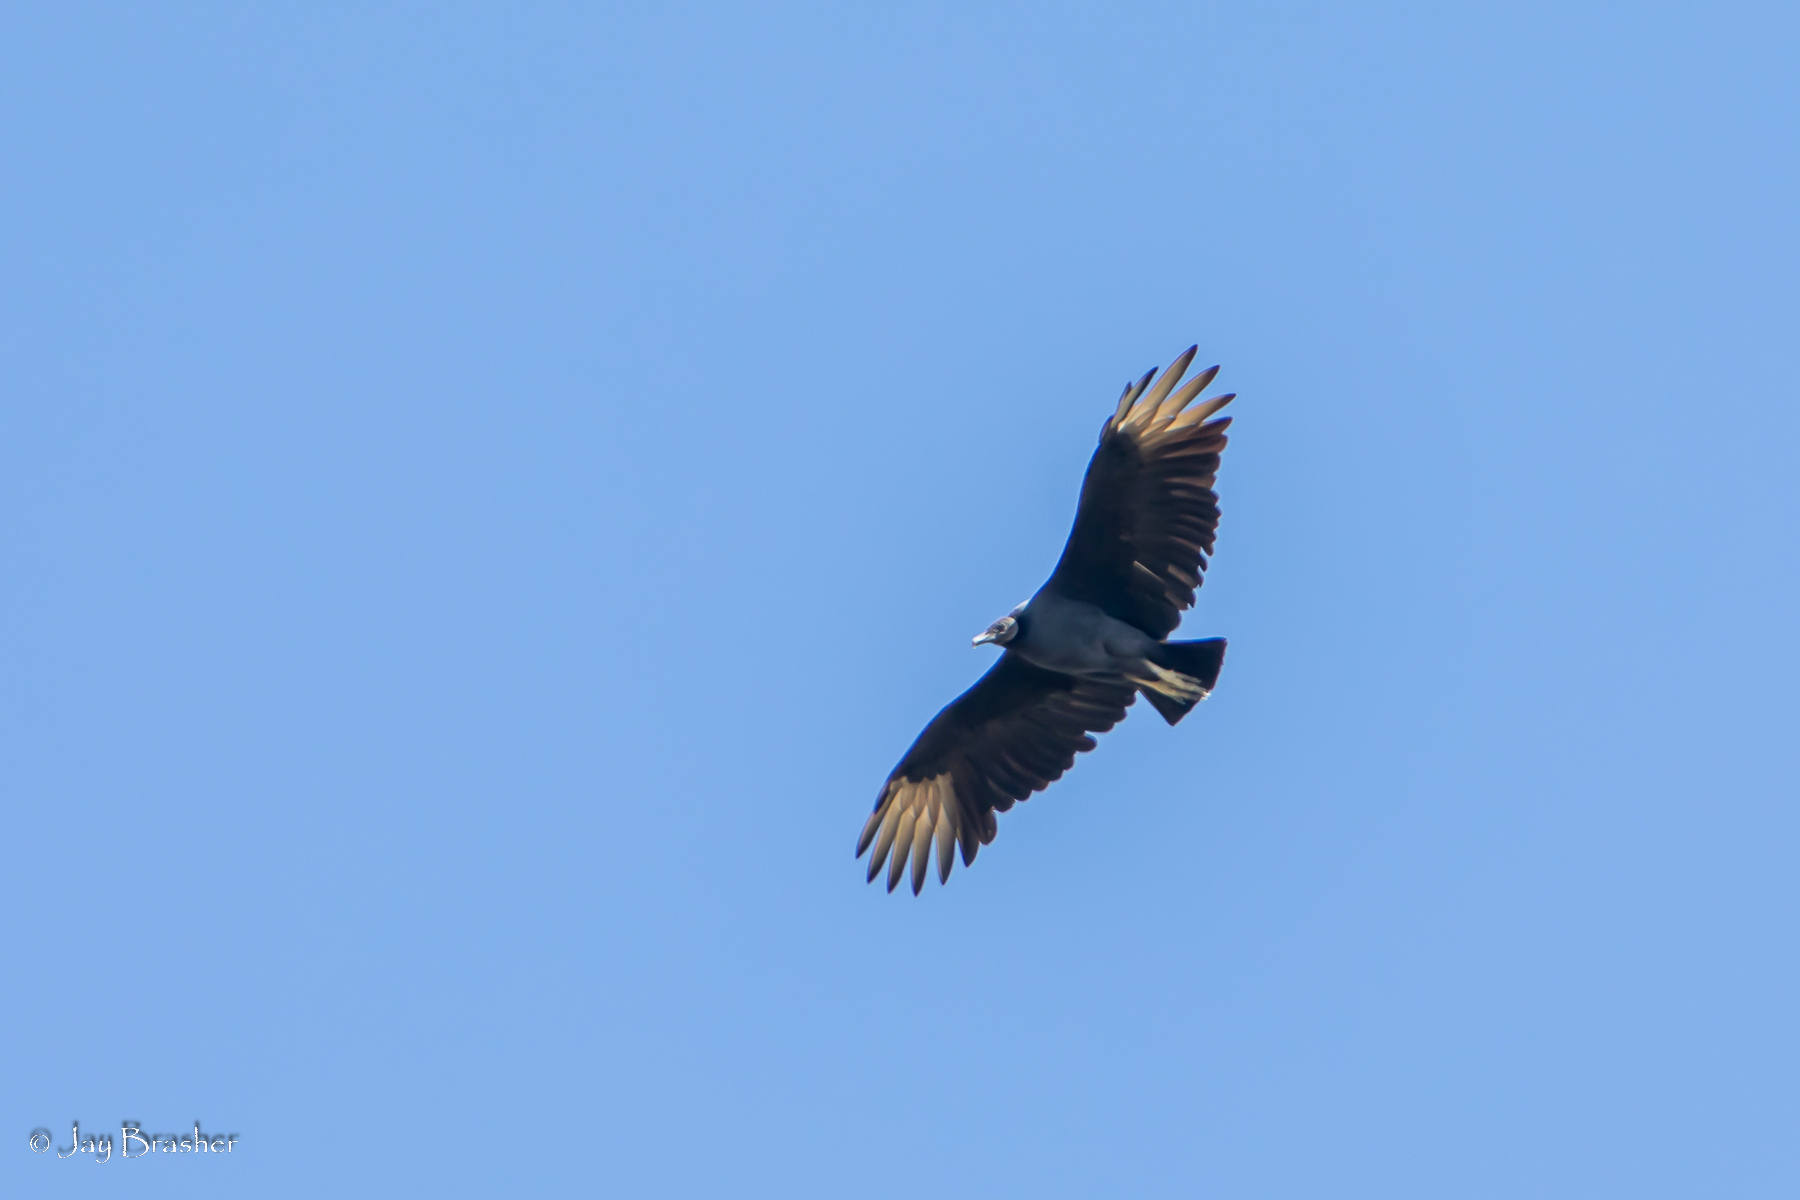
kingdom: Animalia
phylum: Chordata
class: Aves
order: Accipitriformes
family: Cathartidae
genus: Coragyps
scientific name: Coragyps atratus
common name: Black vulture
